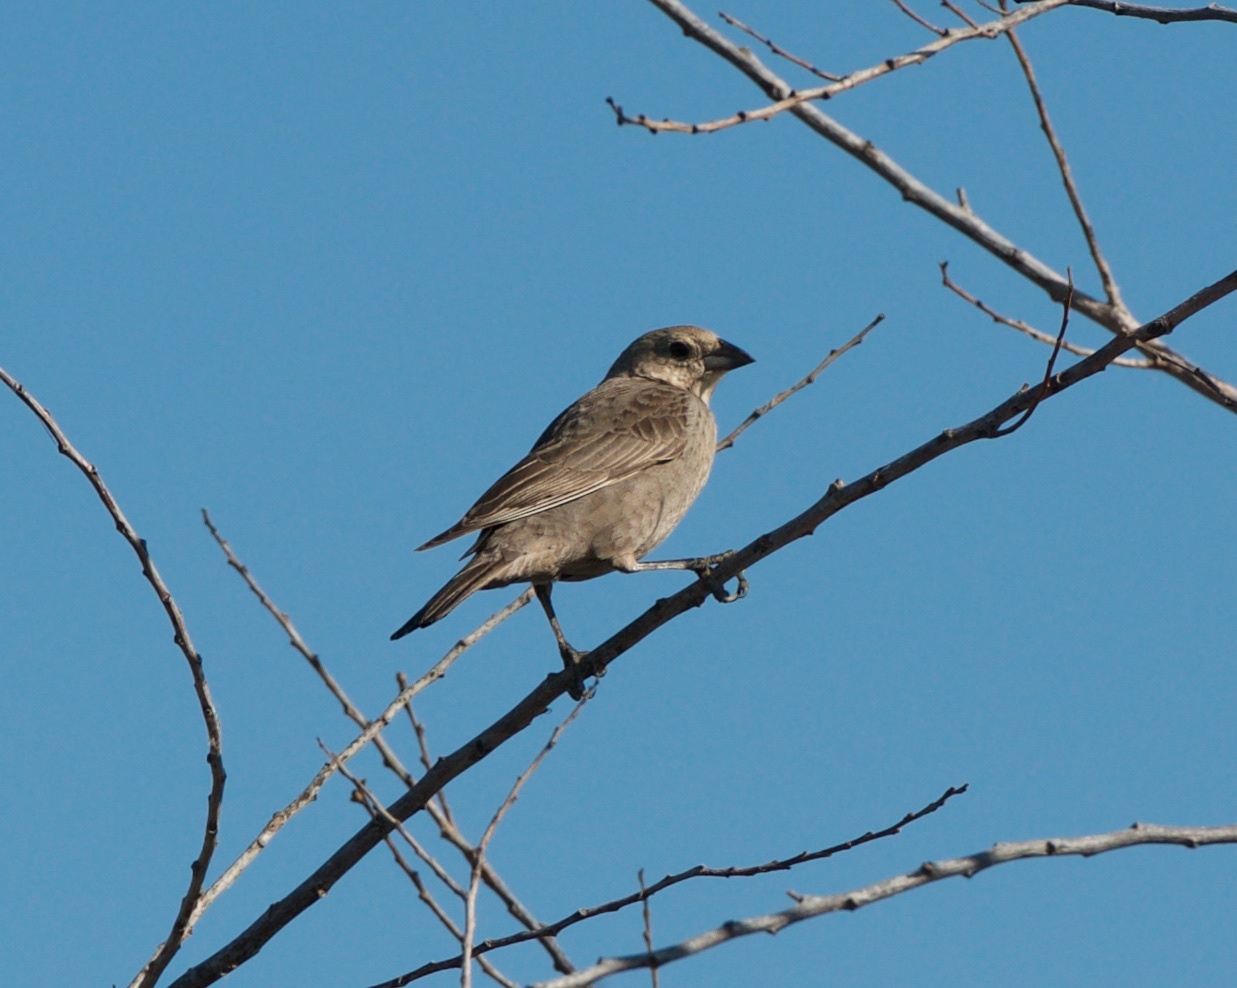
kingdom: Animalia
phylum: Chordata
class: Aves
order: Passeriformes
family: Icteridae
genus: Molothrus
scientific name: Molothrus ater
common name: Brown-headed cowbird
